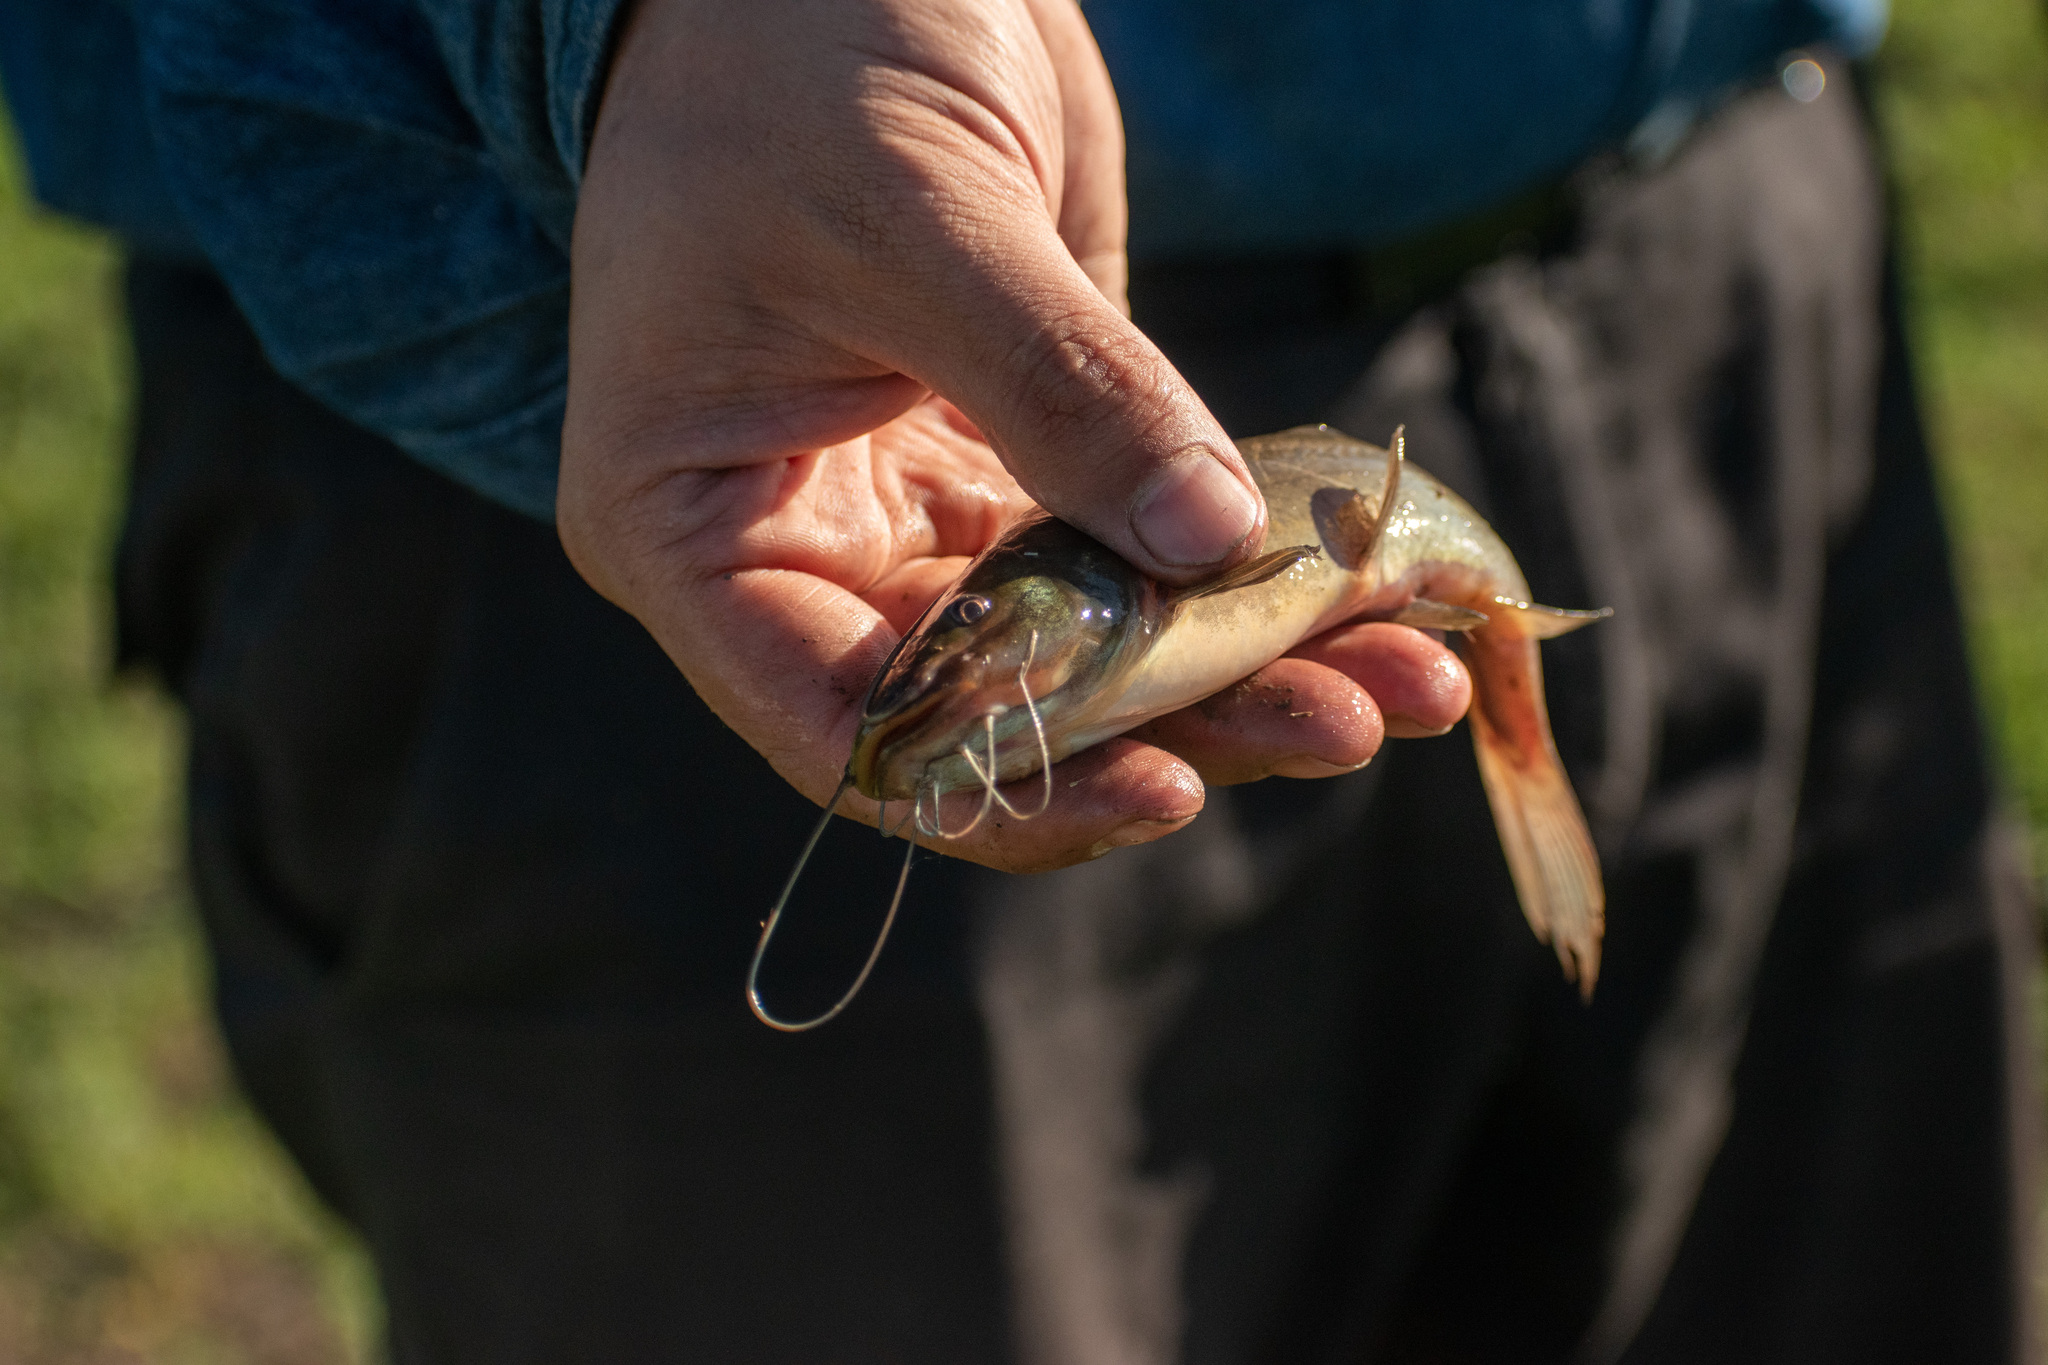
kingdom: Animalia
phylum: Chordata
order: Siluriformes
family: Heptapteridae
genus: Rhamdia
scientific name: Rhamdia quelen
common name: Catfish
